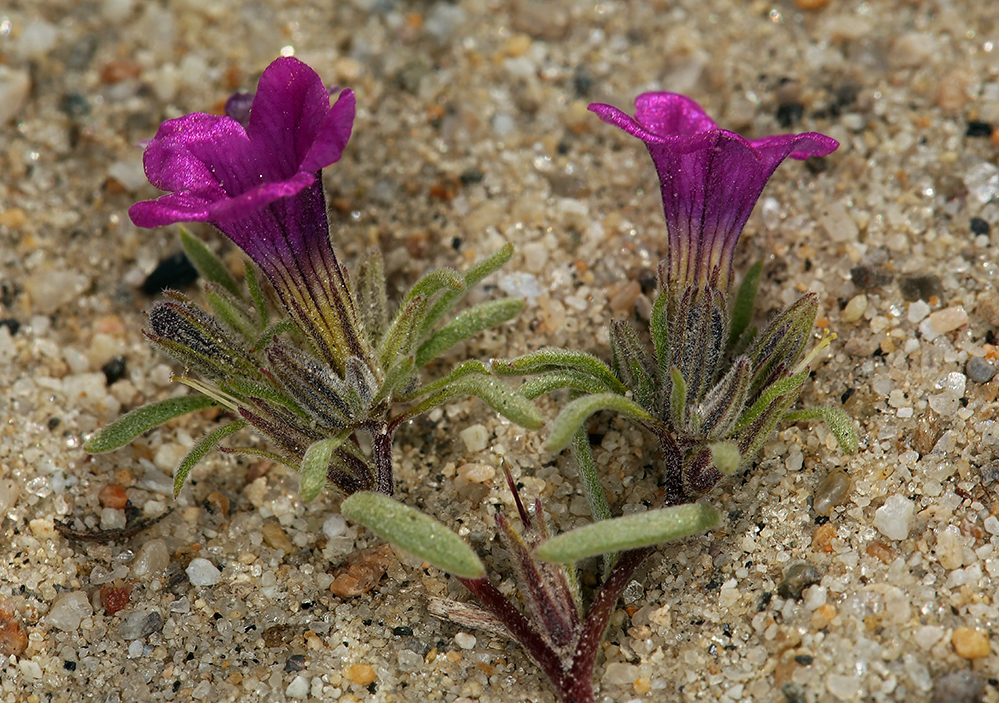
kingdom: Plantae
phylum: Tracheophyta
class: Magnoliopsida
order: Boraginales
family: Namaceae
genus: Nama
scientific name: Nama demissa
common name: Leafy nama
